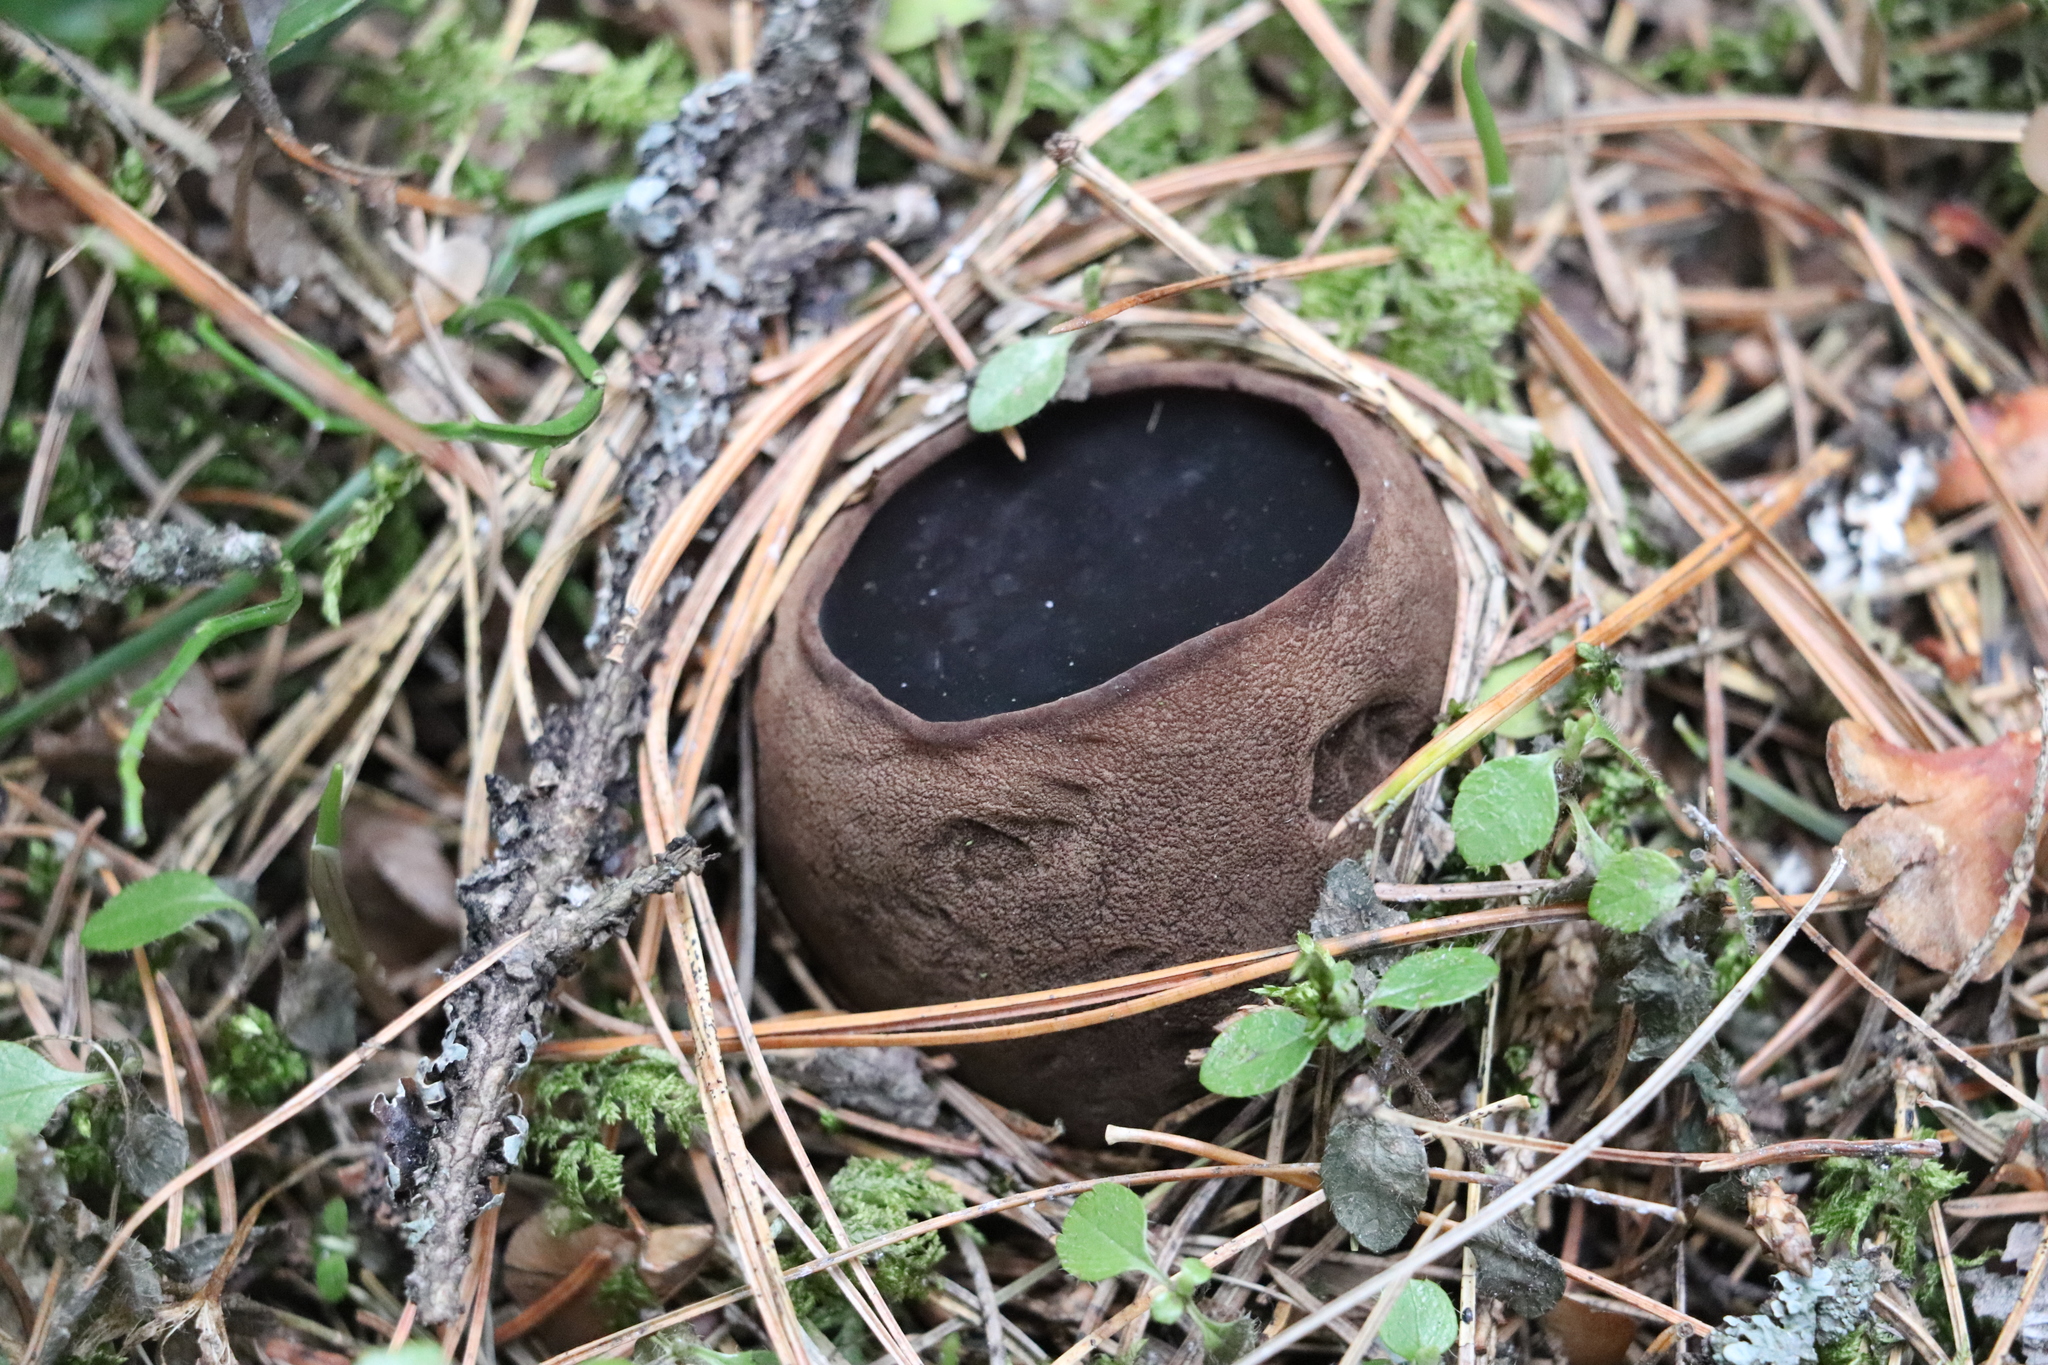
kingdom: Fungi
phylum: Ascomycota
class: Pezizomycetes
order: Pezizales
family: Sarcosomataceae
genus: Sarcosoma
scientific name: Sarcosoma globosum
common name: Charred-pancake cup
